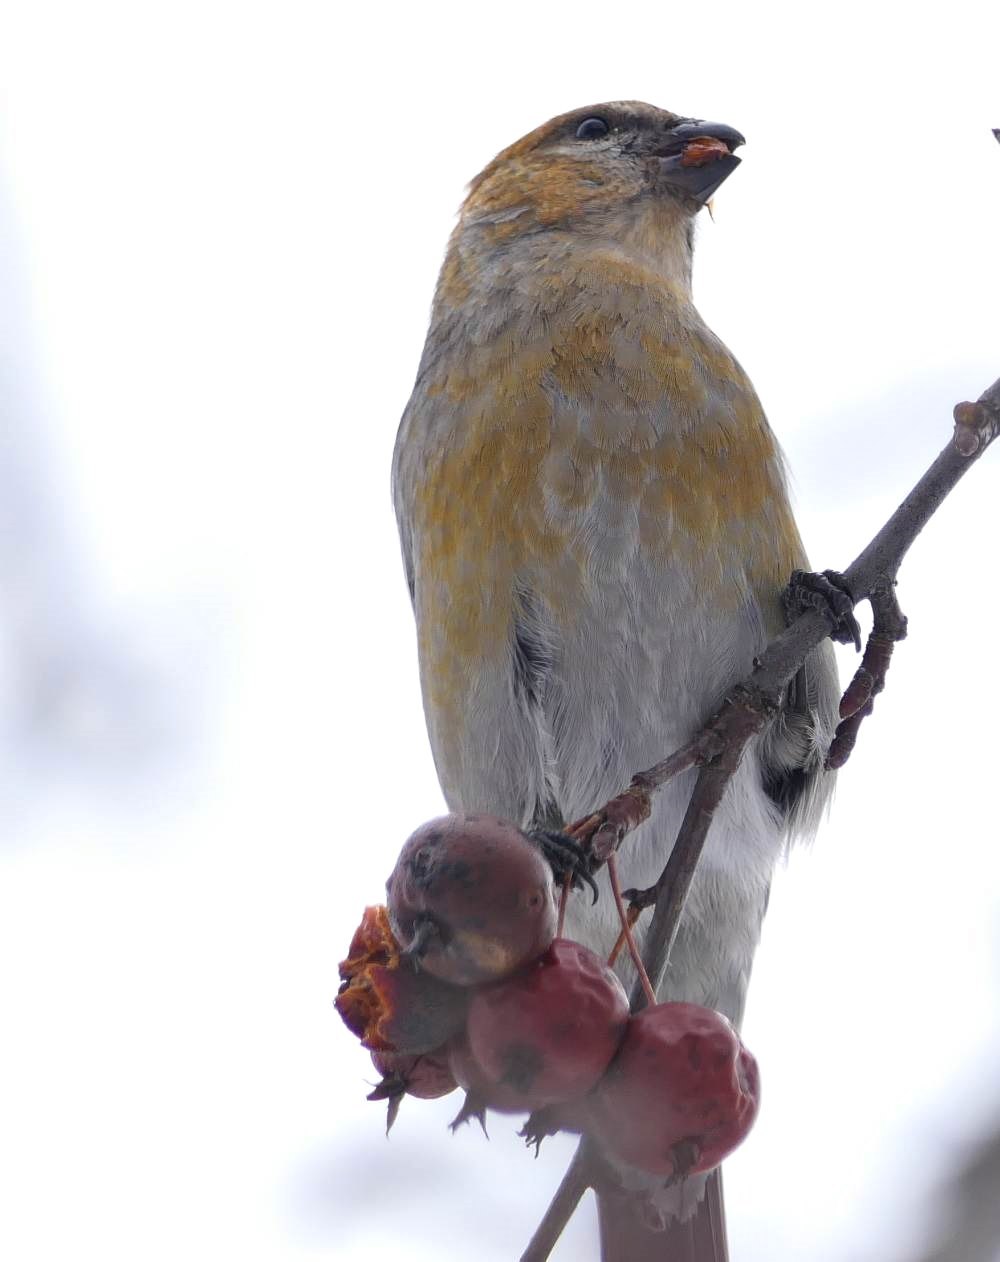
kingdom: Animalia
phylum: Chordata
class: Aves
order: Passeriformes
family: Fringillidae
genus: Pinicola
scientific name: Pinicola enucleator
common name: Pine grosbeak
